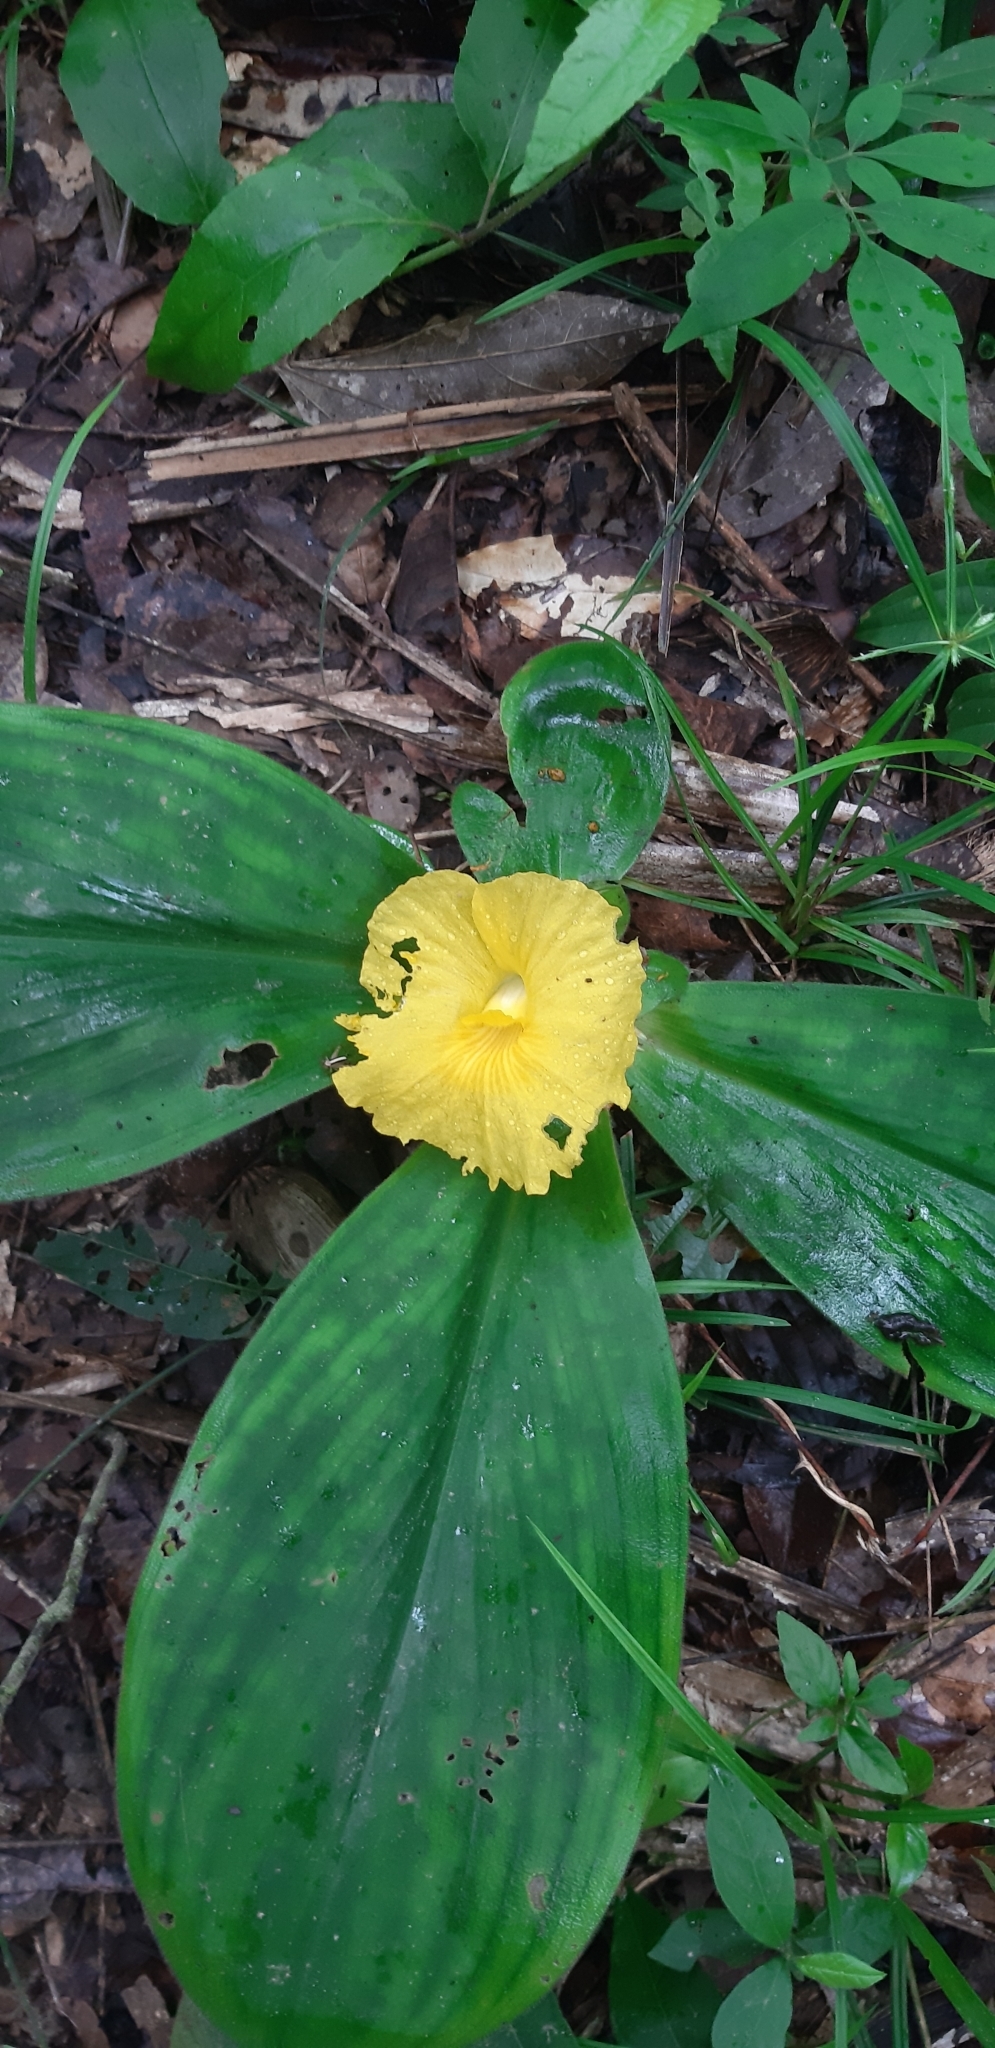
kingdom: Plantae
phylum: Tracheophyta
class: Liliopsida
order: Zingiberales
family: Costaceae
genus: Chamaecostus
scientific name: Chamaecostus acaulis
